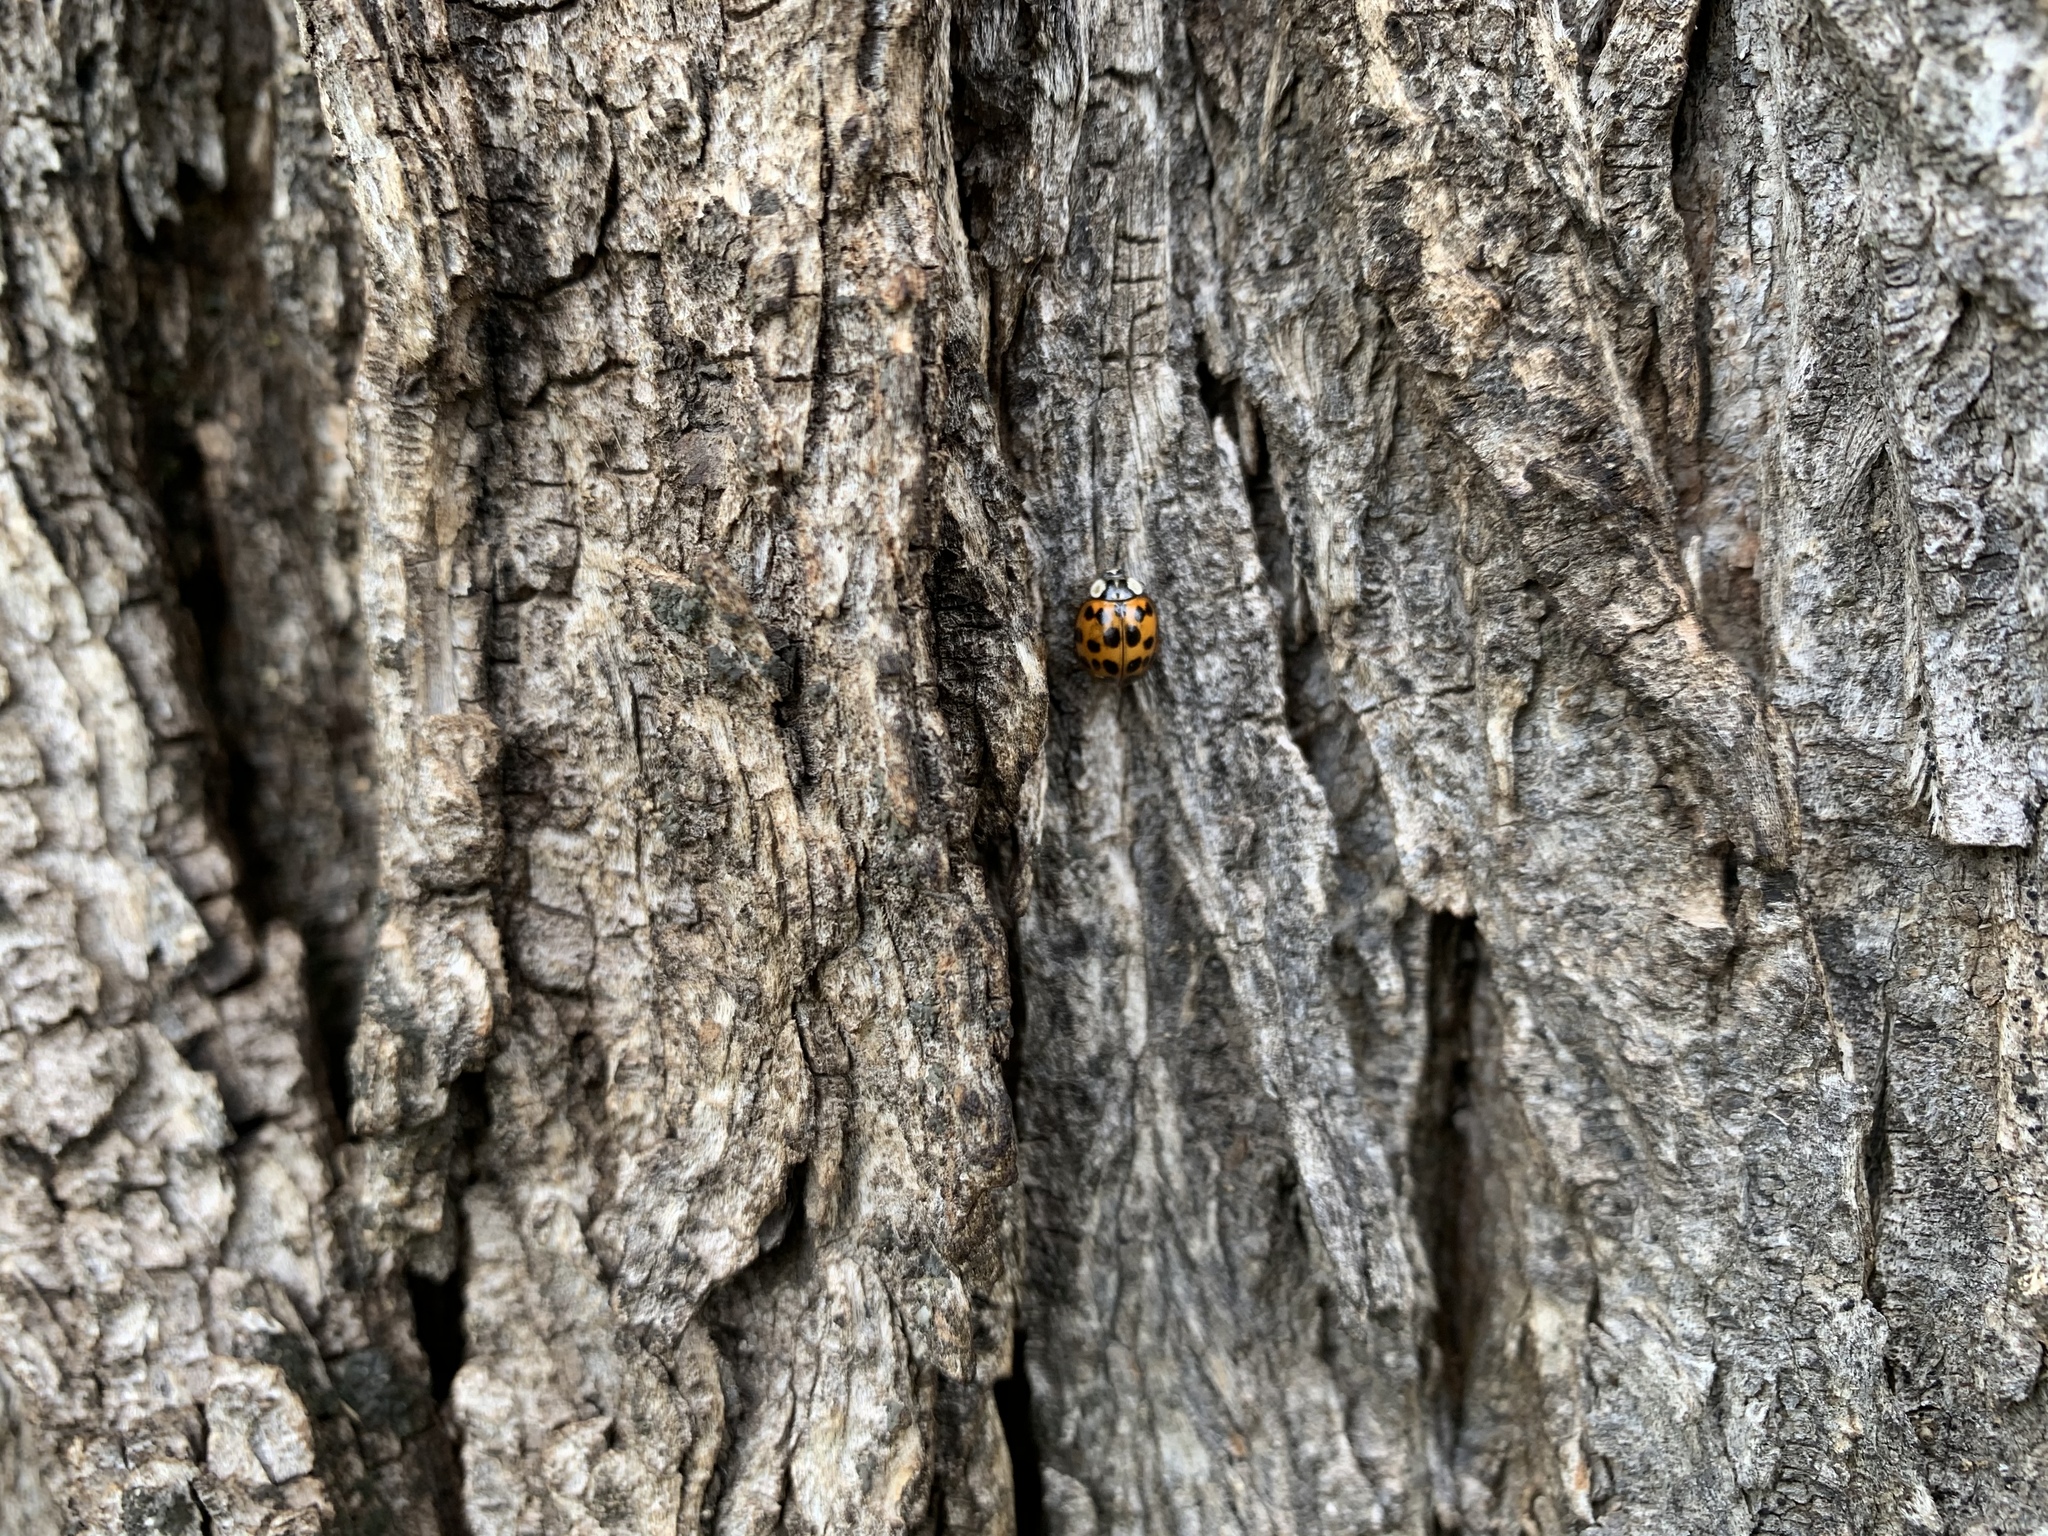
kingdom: Animalia
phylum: Arthropoda
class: Insecta
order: Coleoptera
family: Coccinellidae
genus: Harmonia
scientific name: Harmonia axyridis
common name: Harlequin ladybird
